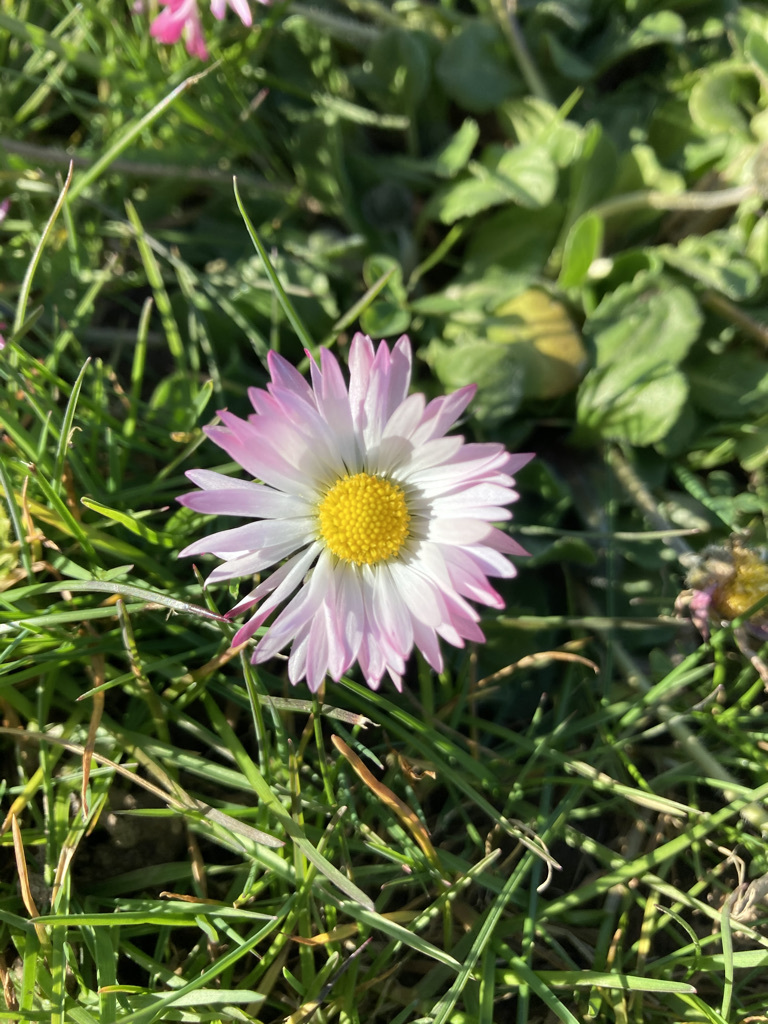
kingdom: Plantae
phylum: Tracheophyta
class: Magnoliopsida
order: Asterales
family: Asteraceae
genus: Bellis
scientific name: Bellis perennis
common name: Lawndaisy
